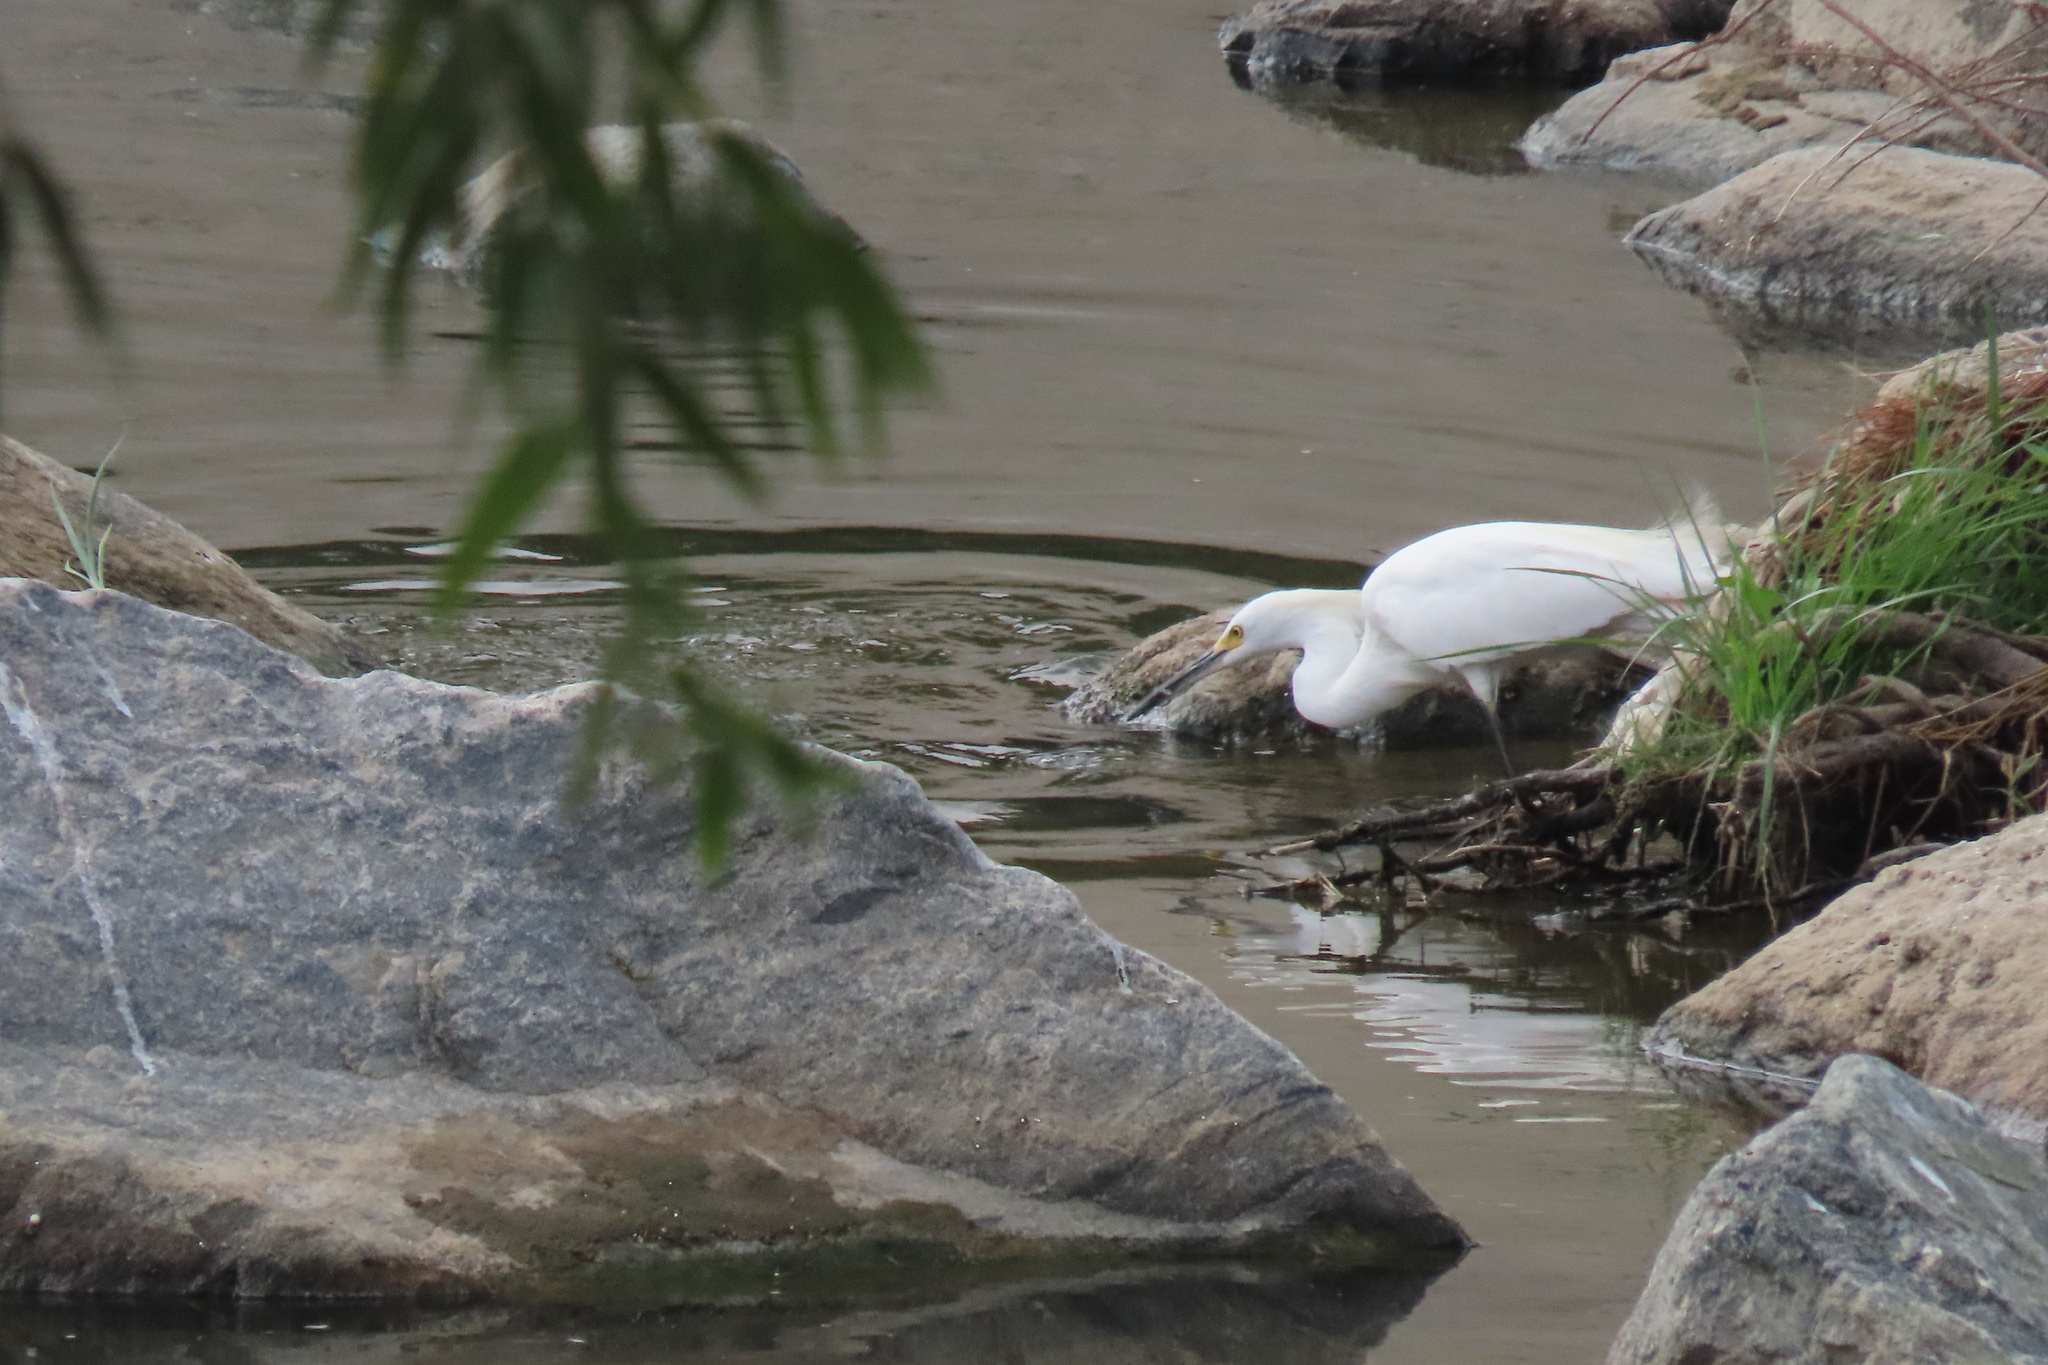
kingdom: Animalia
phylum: Chordata
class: Aves
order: Pelecaniformes
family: Ardeidae
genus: Egretta
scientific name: Egretta thula
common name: Snowy egret
